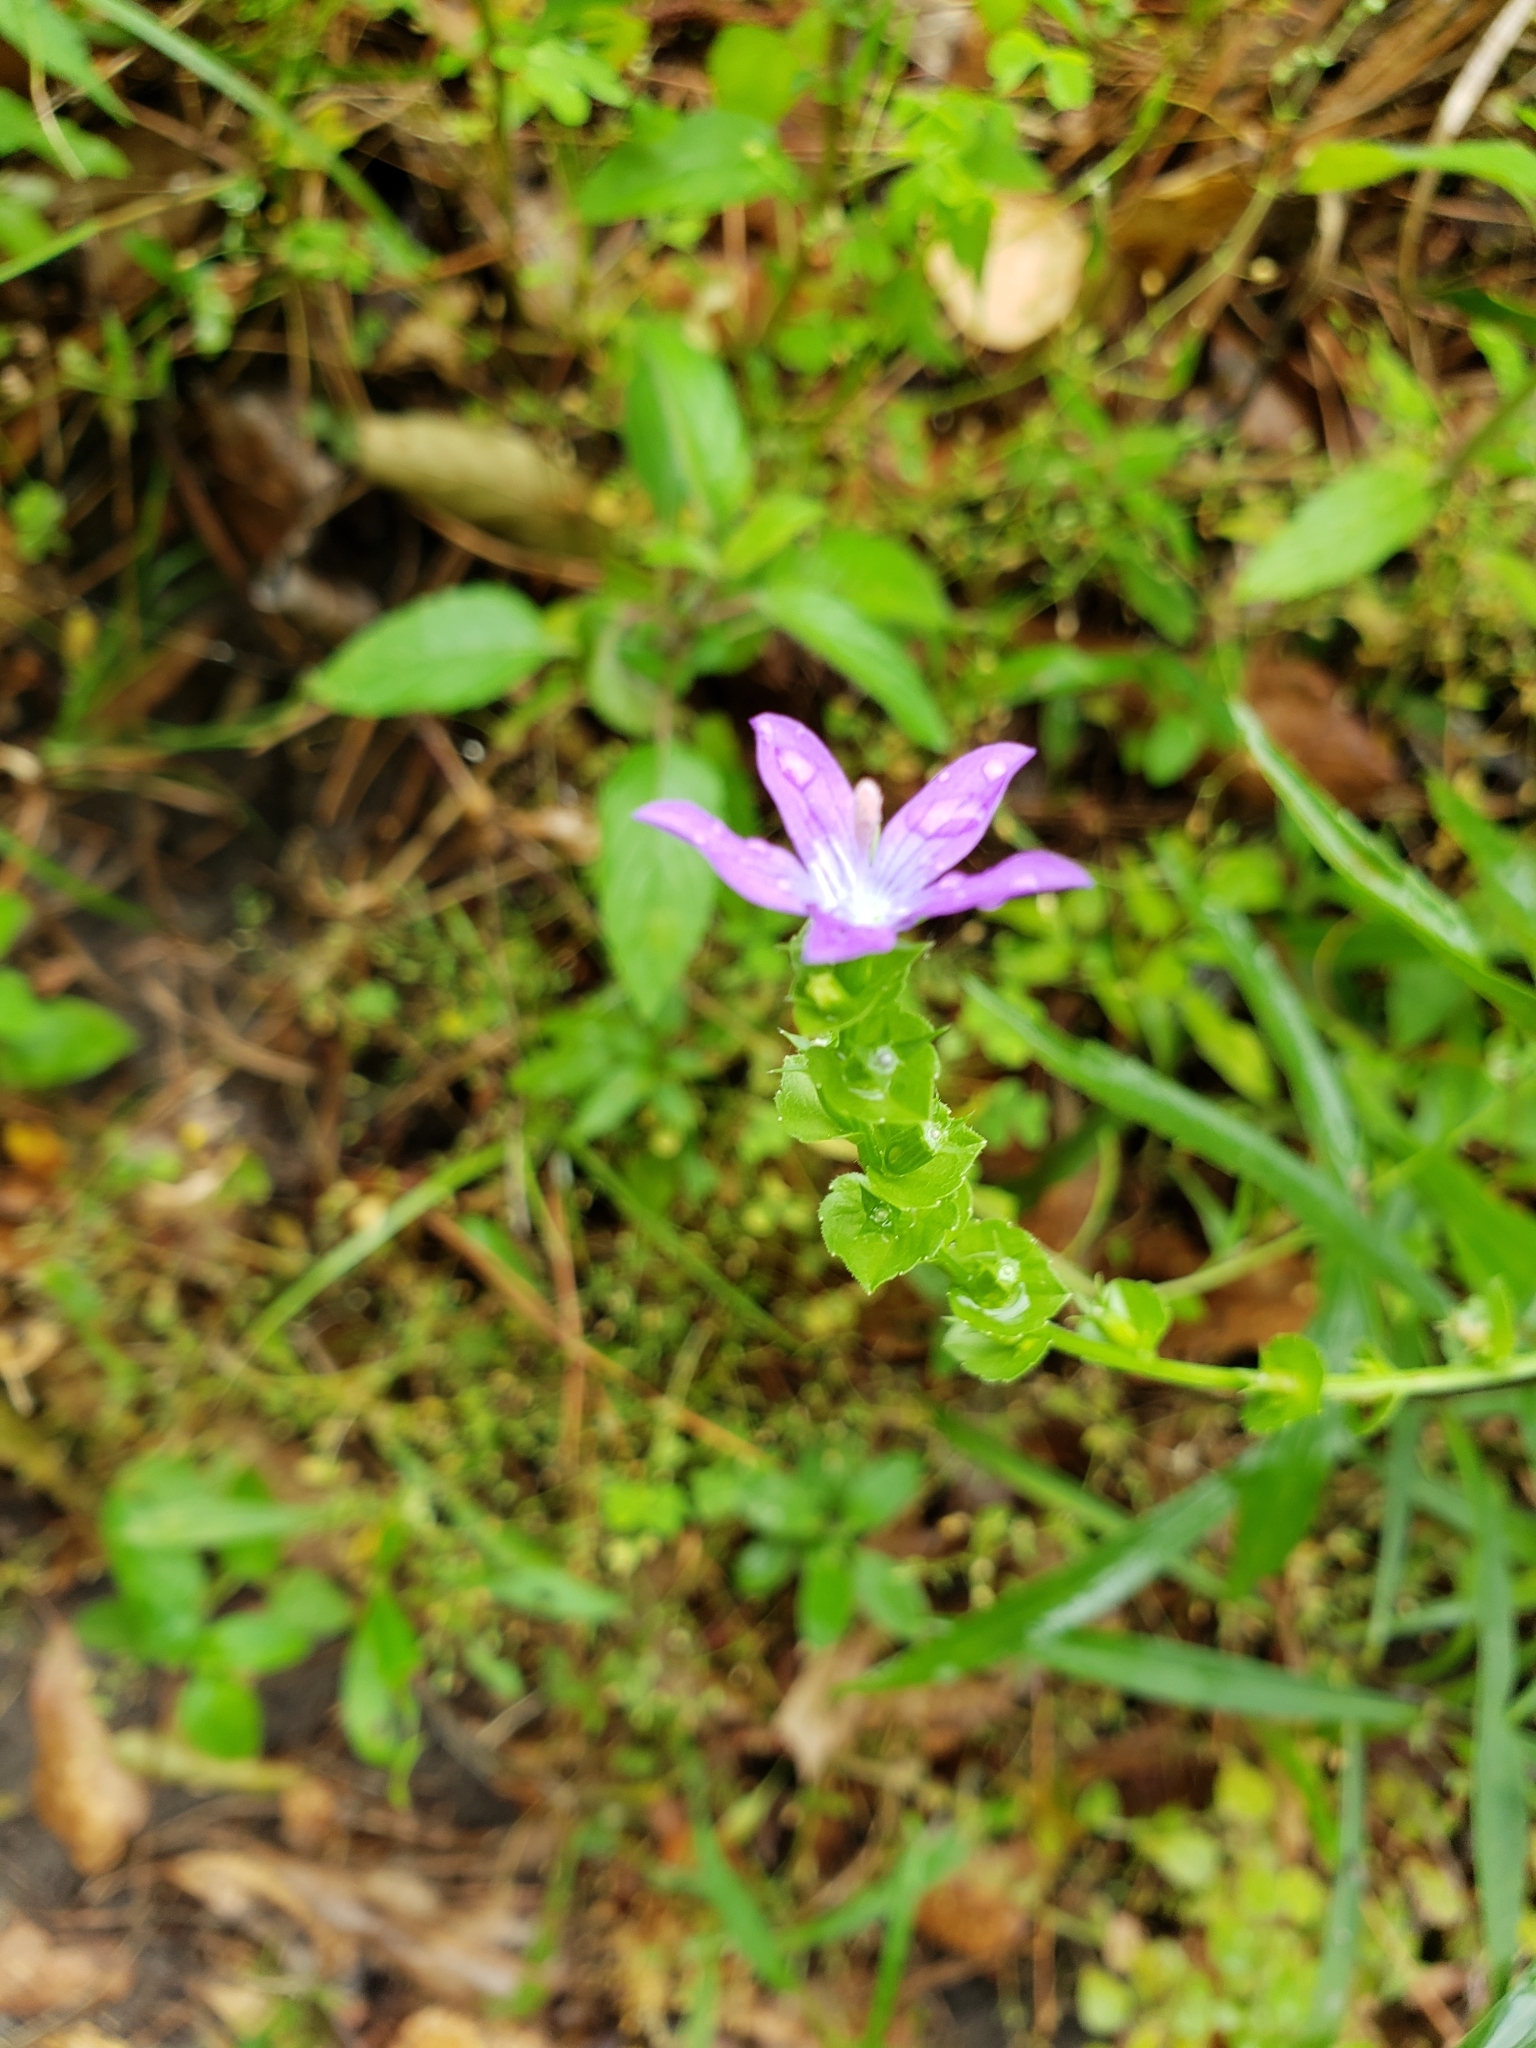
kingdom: Plantae
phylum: Tracheophyta
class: Magnoliopsida
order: Asterales
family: Campanulaceae
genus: Triodanis
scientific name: Triodanis perfoliata
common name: Clasping venus' looking-glass
